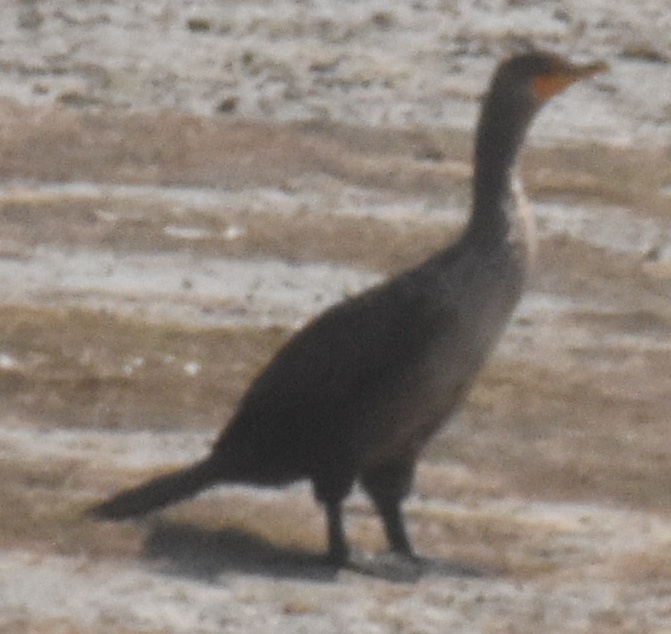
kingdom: Animalia
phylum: Chordata
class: Aves
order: Suliformes
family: Phalacrocoracidae
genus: Phalacrocorax
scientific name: Phalacrocorax auritus
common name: Double-crested cormorant
